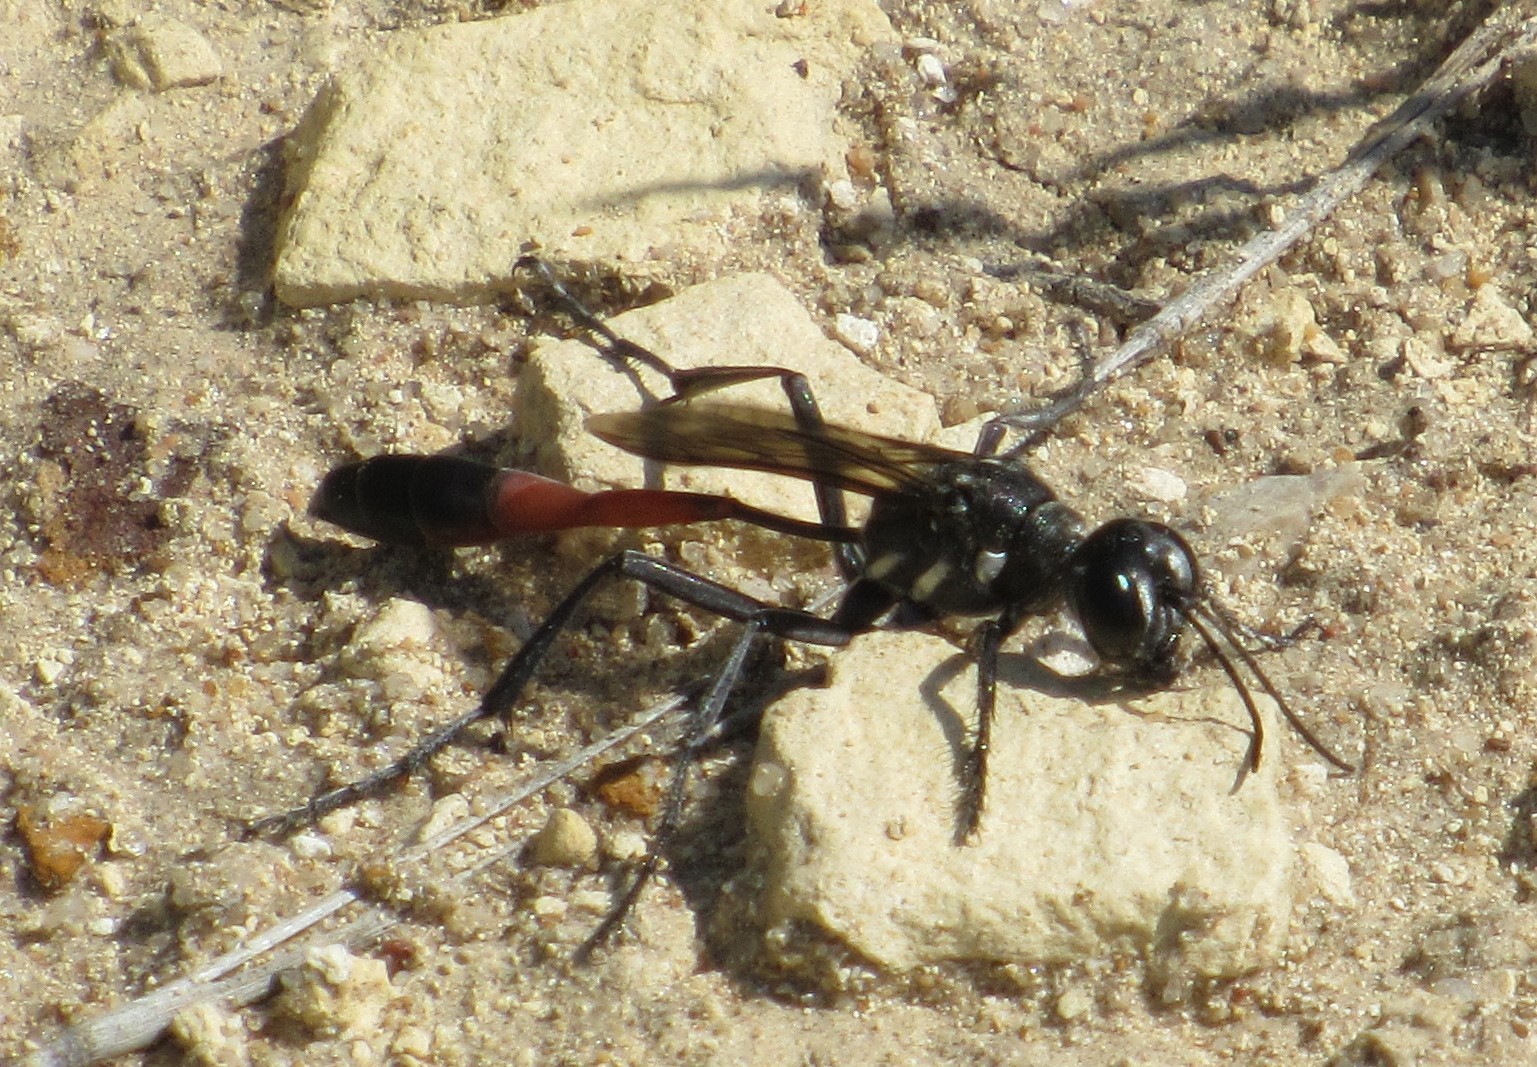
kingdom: Animalia
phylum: Arthropoda
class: Insecta
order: Hymenoptera
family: Sphecidae
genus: Ammophila
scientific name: Ammophila procera
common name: Common thread-waisted wasp
